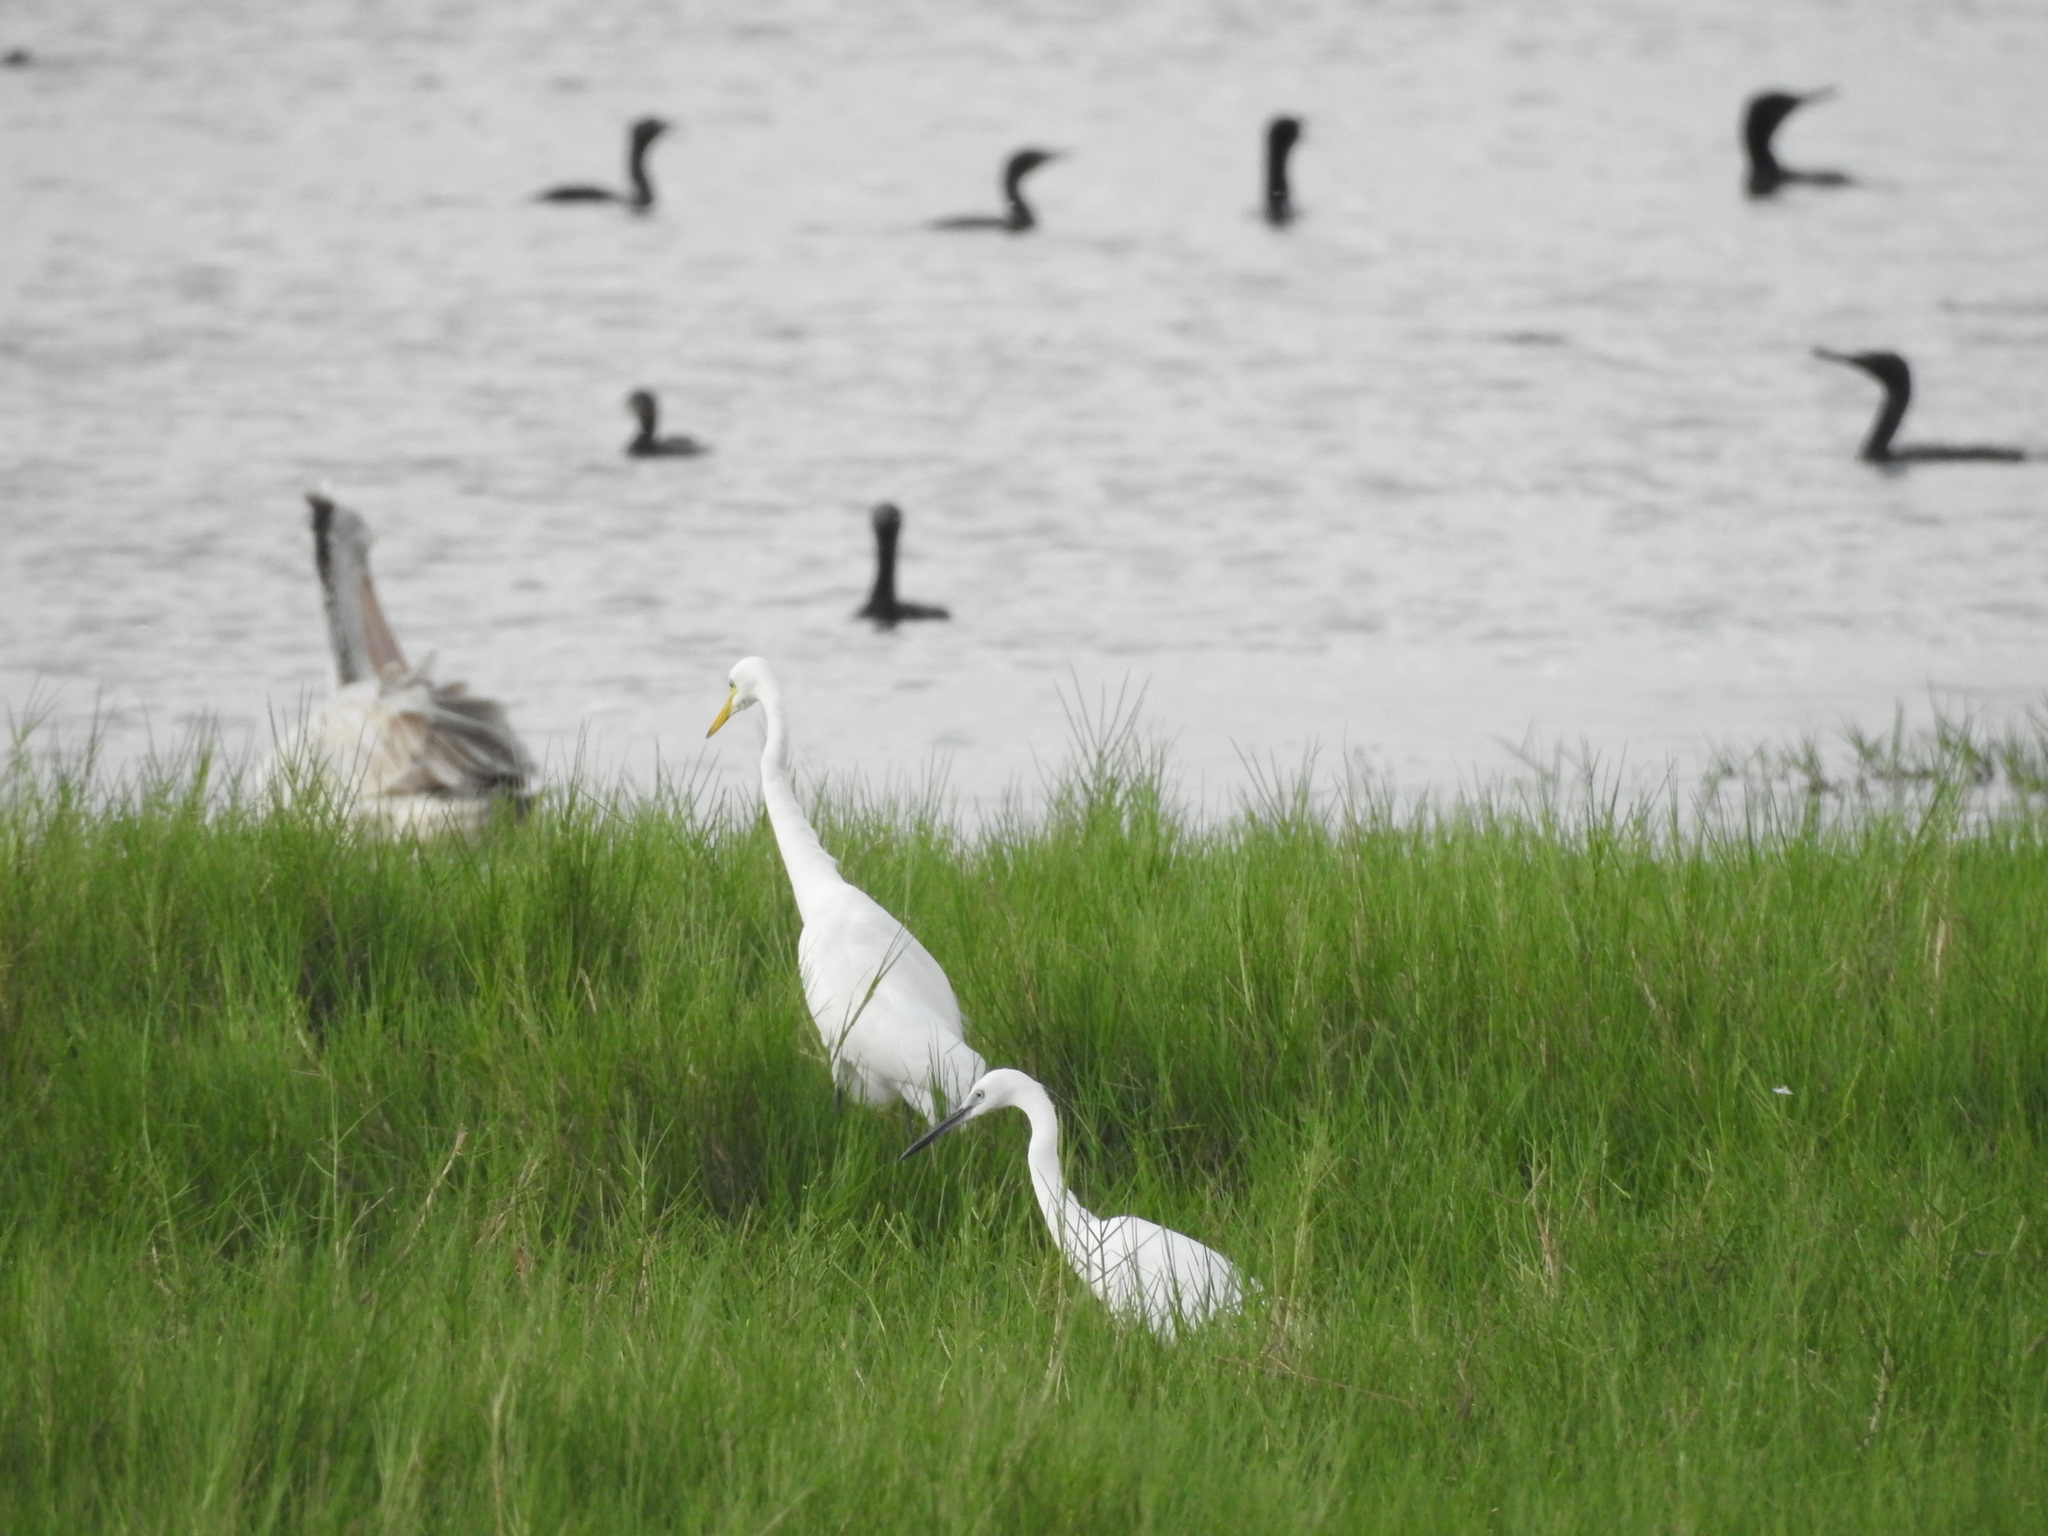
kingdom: Animalia
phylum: Chordata
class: Aves
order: Pelecaniformes
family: Ardeidae
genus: Egretta
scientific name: Egretta garzetta
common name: Little egret
